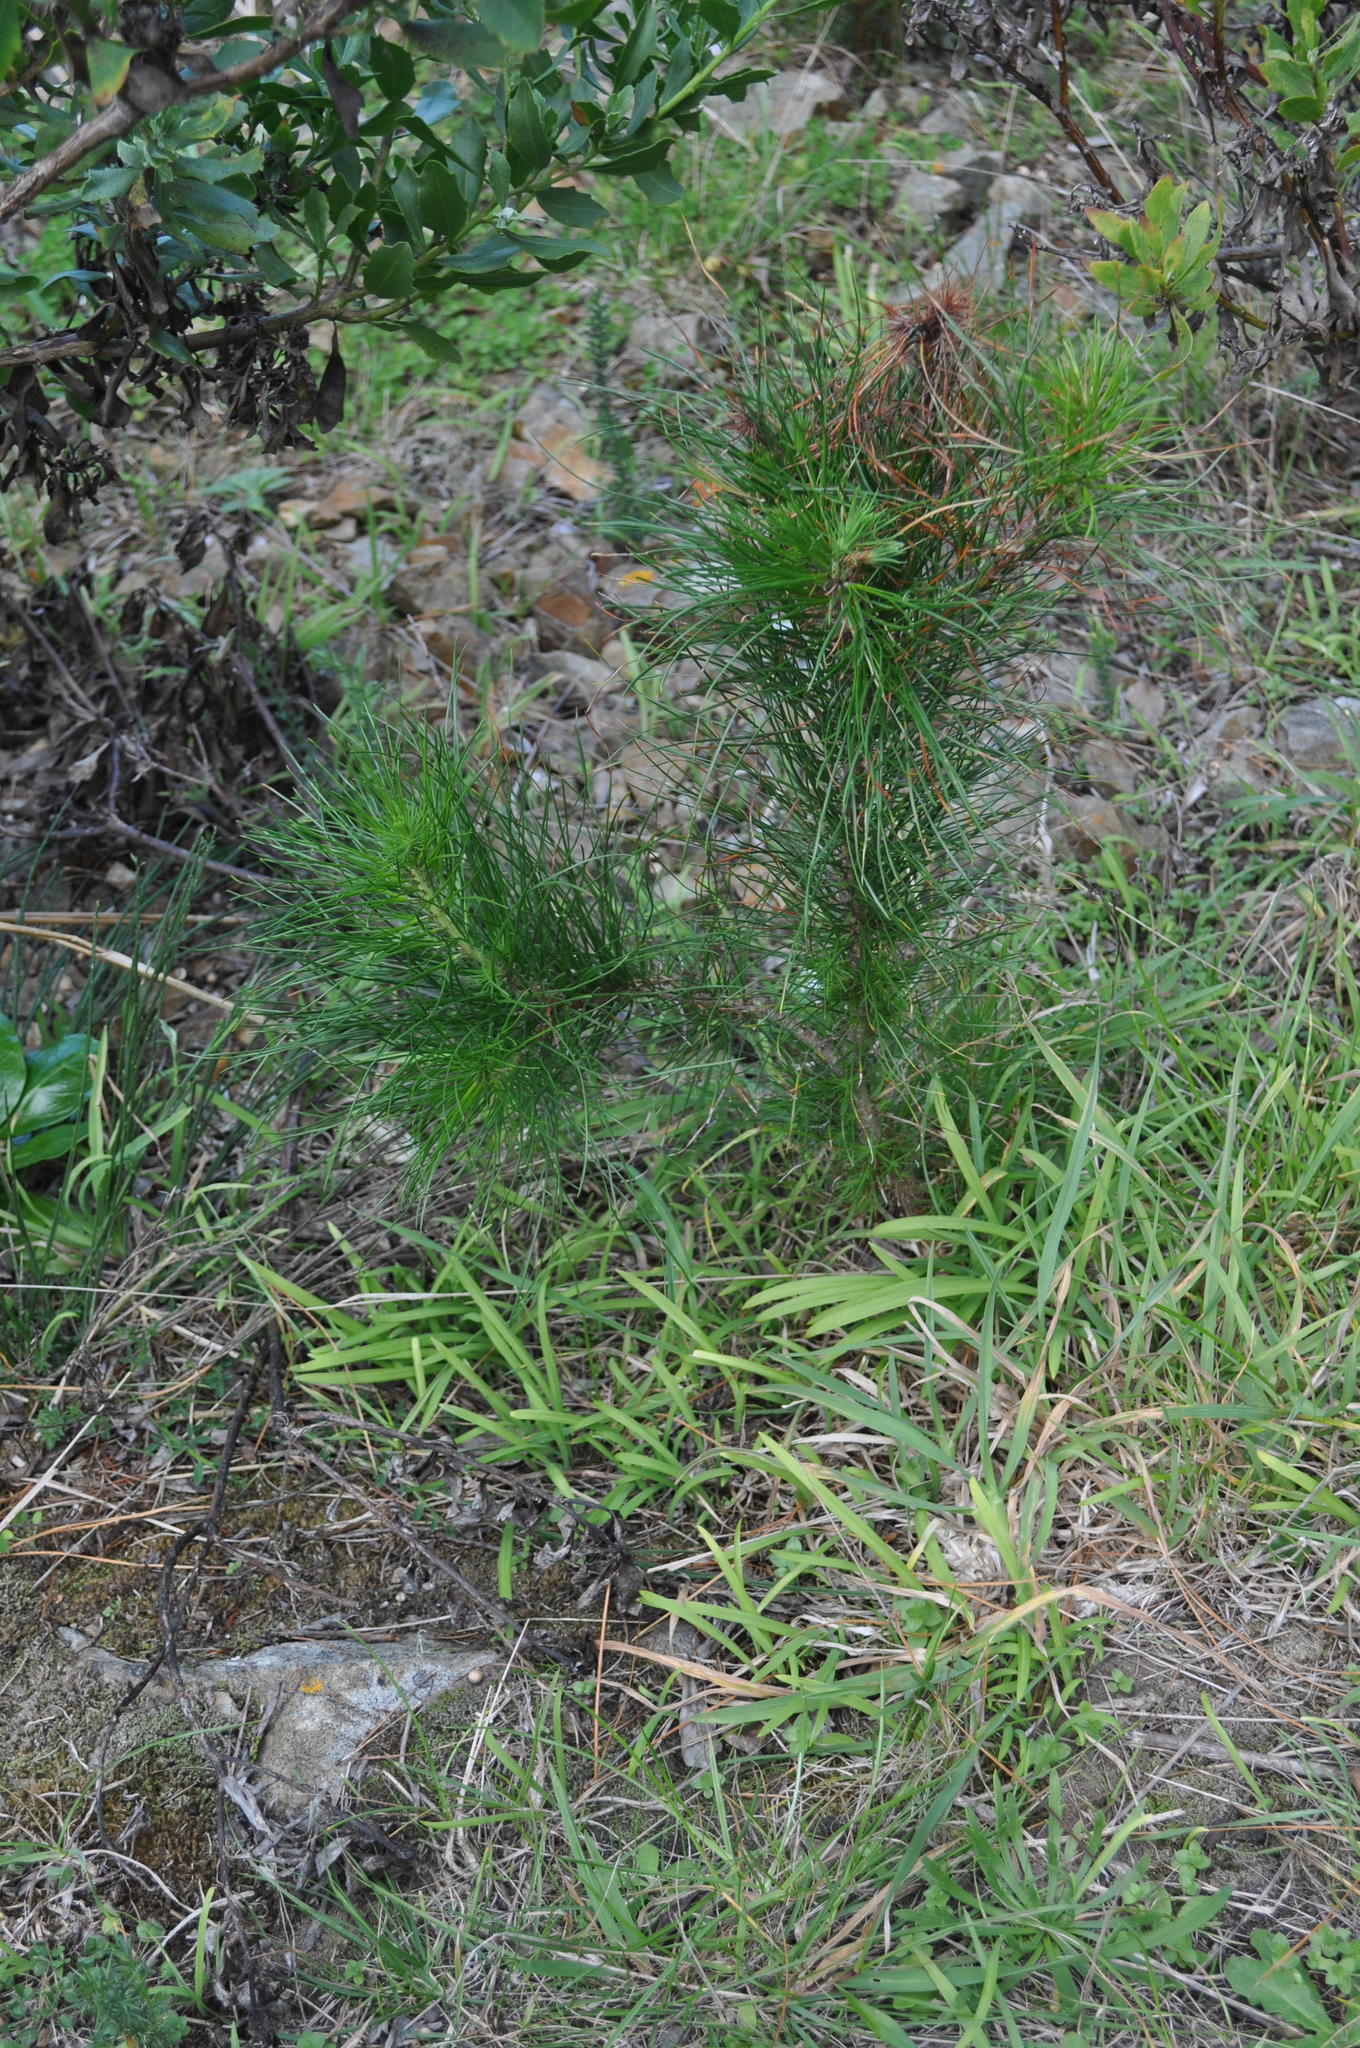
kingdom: Plantae
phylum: Tracheophyta
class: Pinopsida
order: Pinales
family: Pinaceae
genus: Pinus
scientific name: Pinus radiata
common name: Monterey pine
